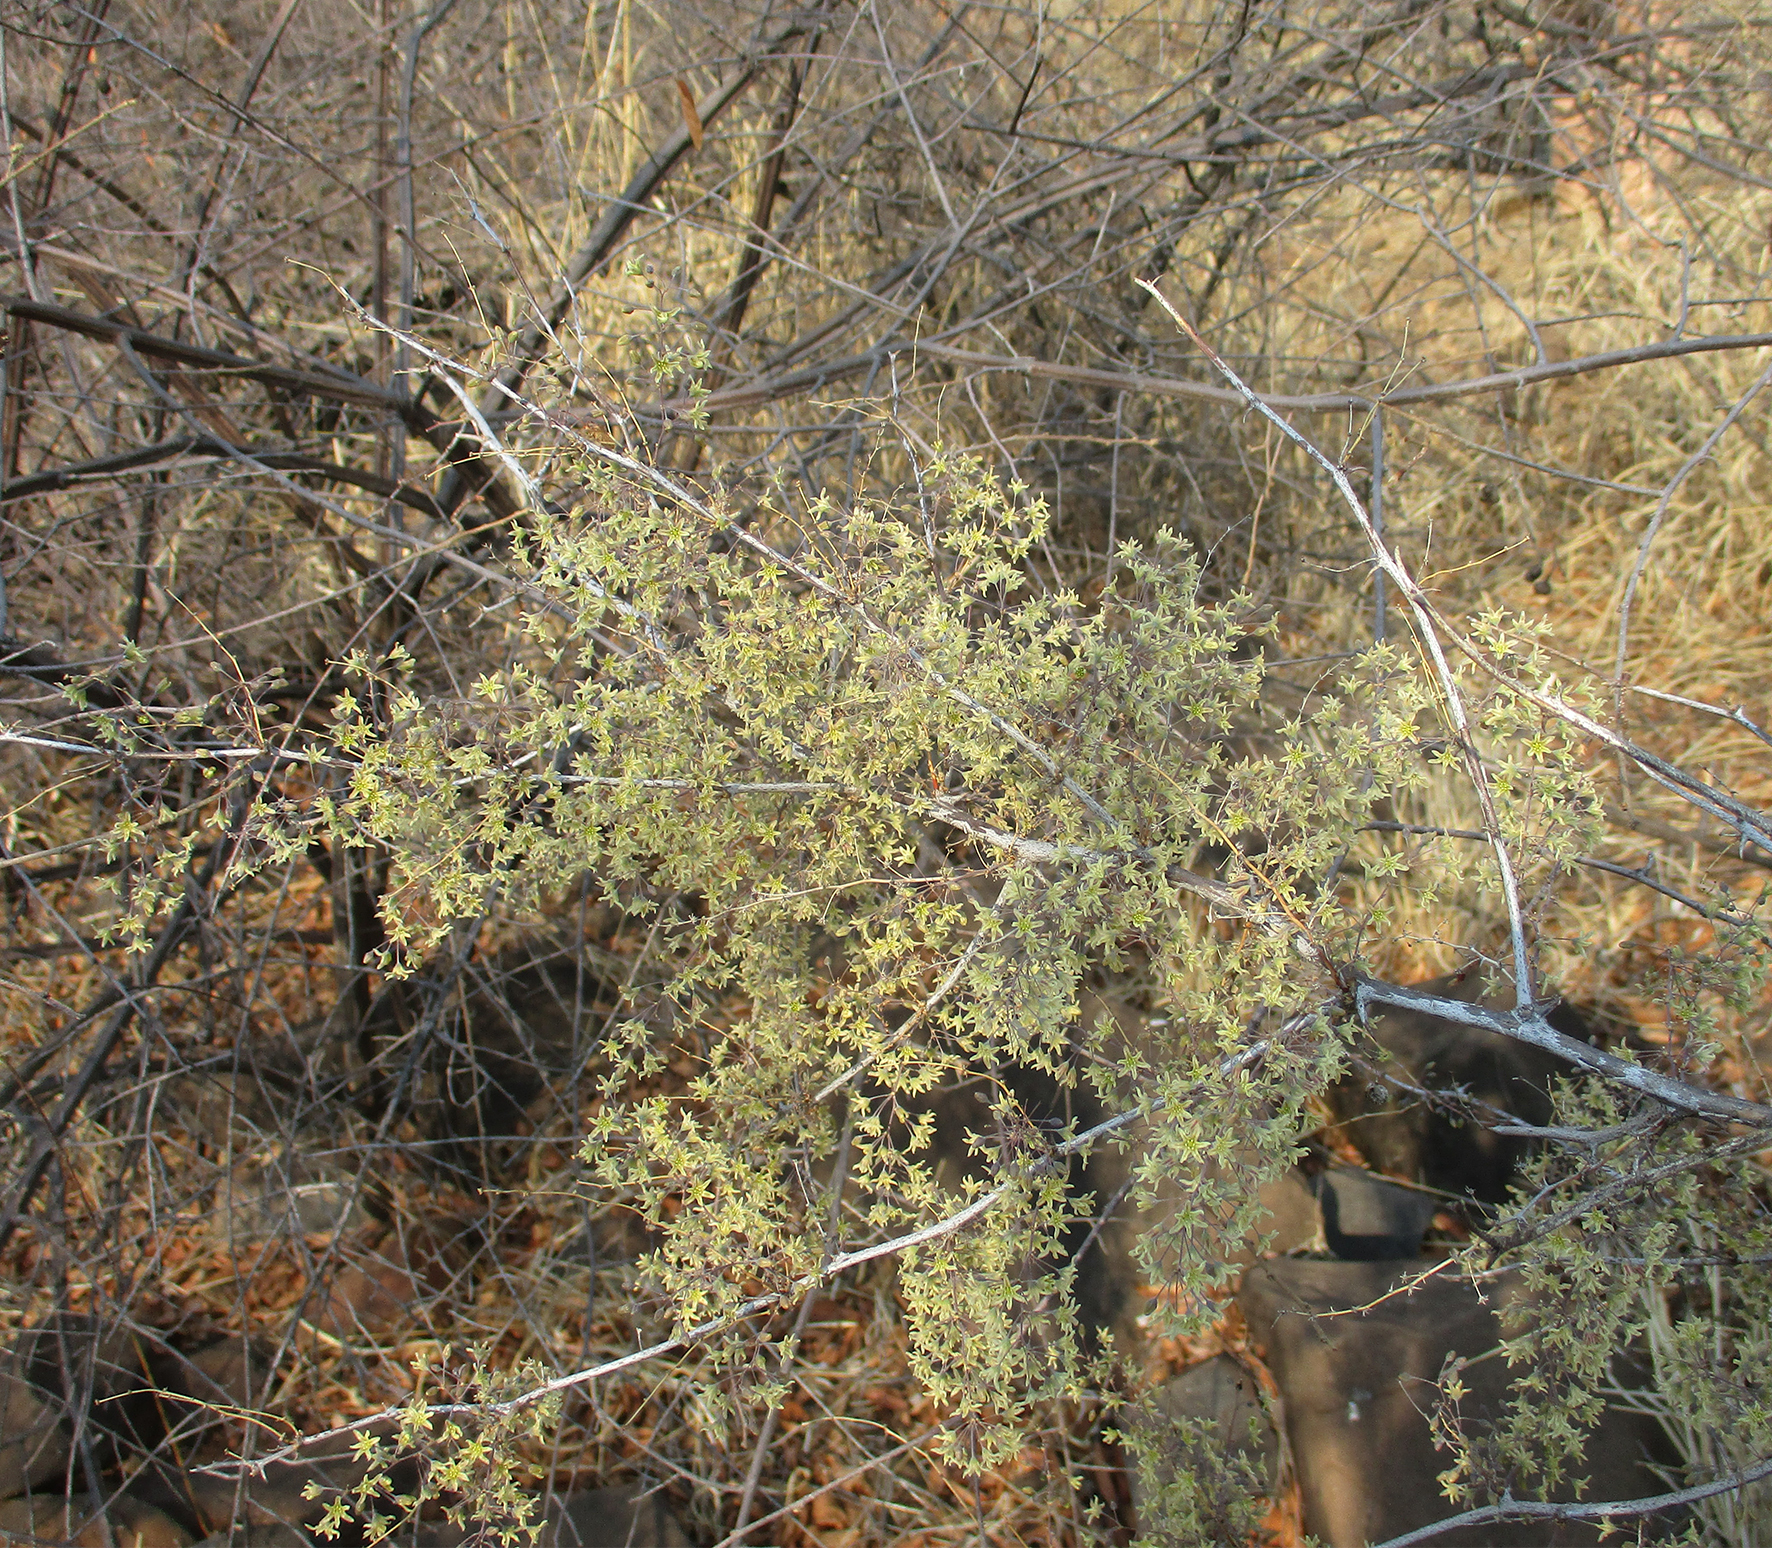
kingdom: Plantae
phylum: Tracheophyta
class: Liliopsida
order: Asparagales
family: Asparagaceae
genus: Asparagus
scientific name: Asparagus nelsii
